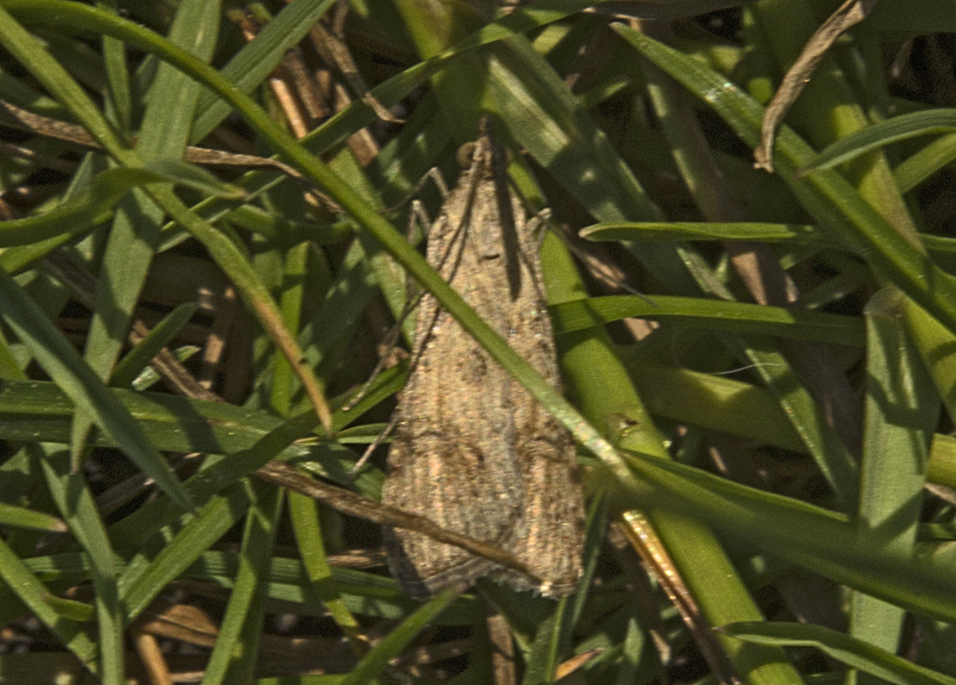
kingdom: Animalia
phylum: Arthropoda
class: Insecta
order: Lepidoptera
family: Crambidae
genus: Nomophila
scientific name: Nomophila noctuella
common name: Rush veneer
